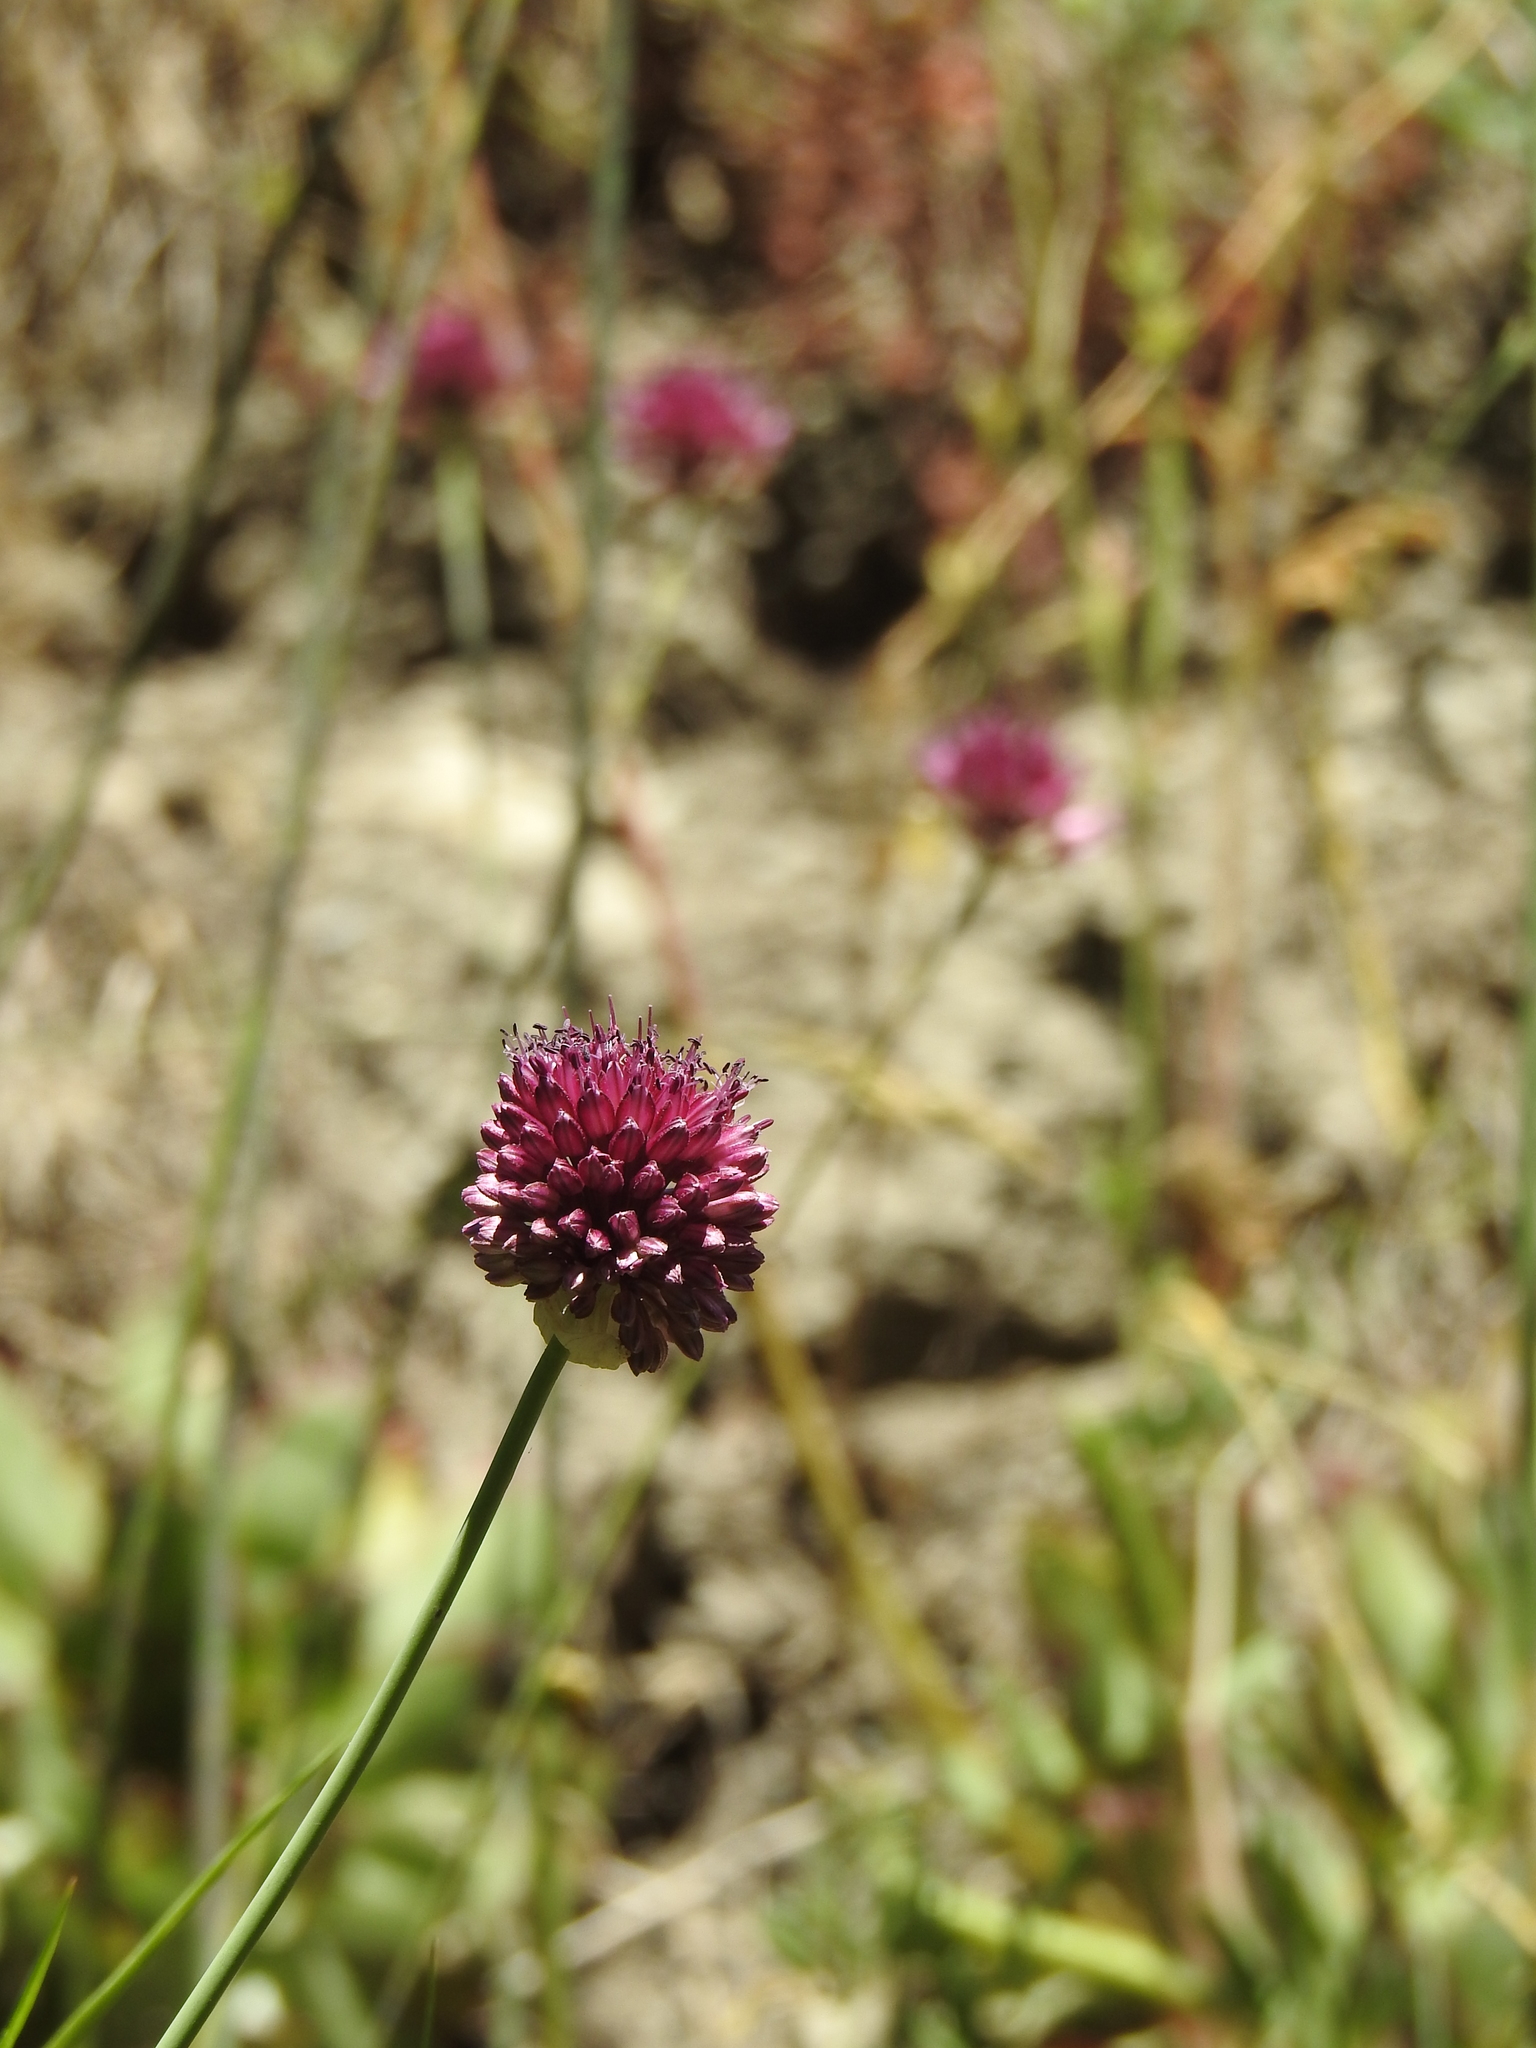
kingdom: Plantae
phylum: Tracheophyta
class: Liliopsida
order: Asparagales
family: Amaryllidaceae
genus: Allium
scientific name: Allium sphaerocephalon
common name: Round-headed leek
